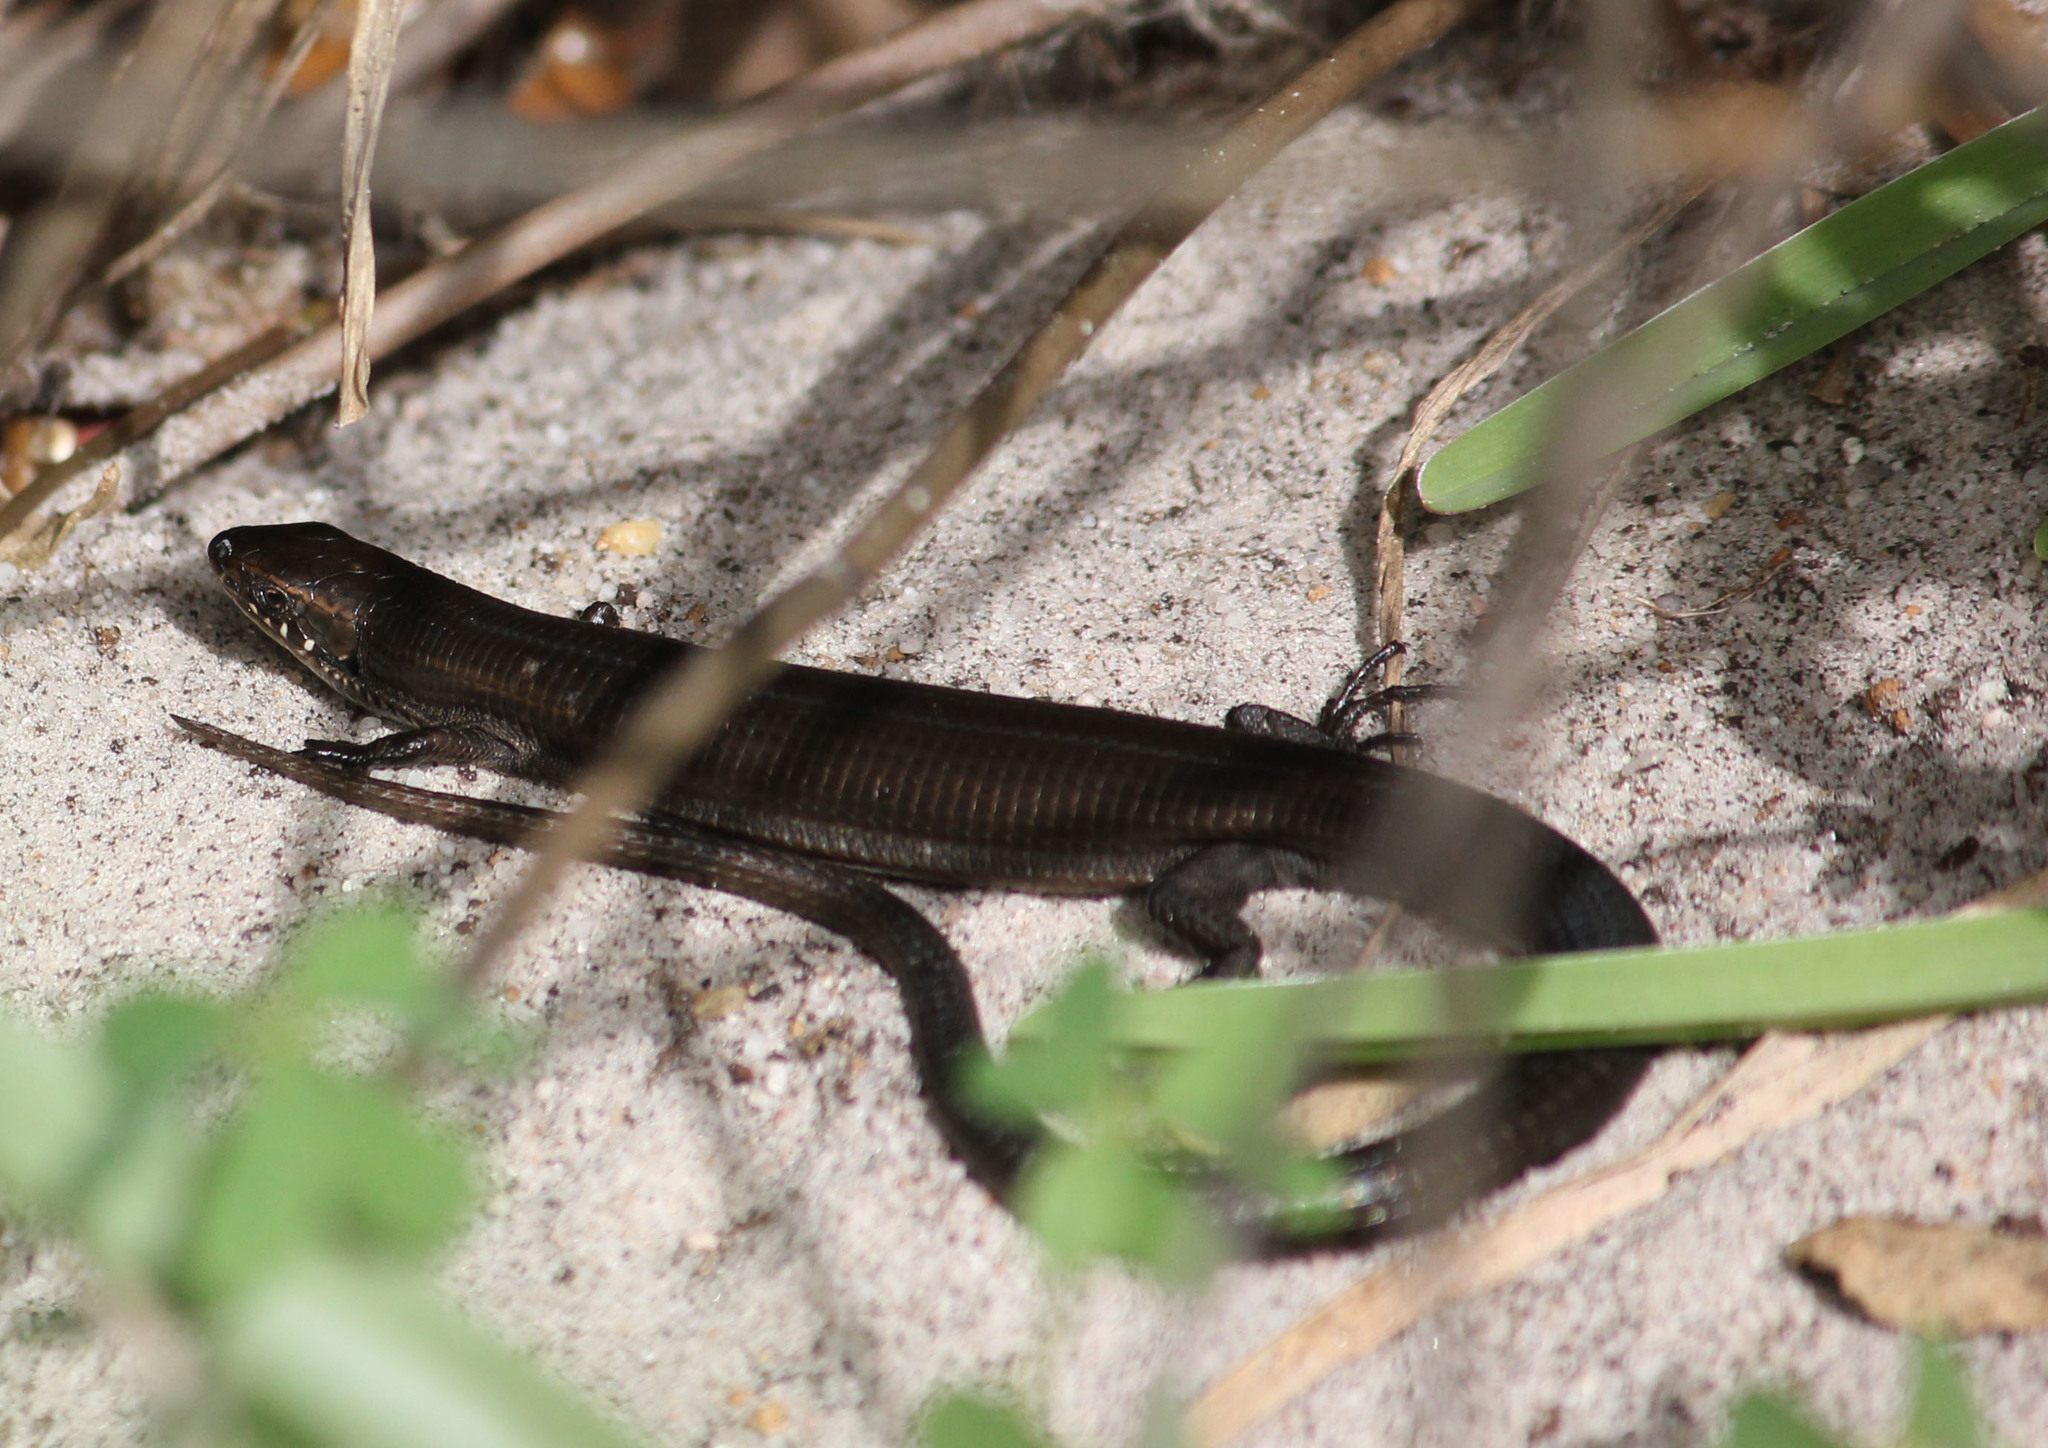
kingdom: Animalia
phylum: Chordata
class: Squamata
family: Gerrhosauridae
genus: Tetradactylus
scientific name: Tetradactylus seps
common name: Five-toed whip lizard
